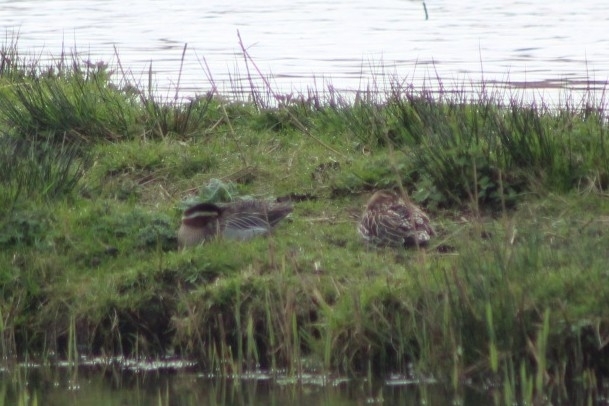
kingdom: Animalia
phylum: Chordata
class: Aves
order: Anseriformes
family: Anatidae
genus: Spatula
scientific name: Spatula querquedula
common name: Garganey
